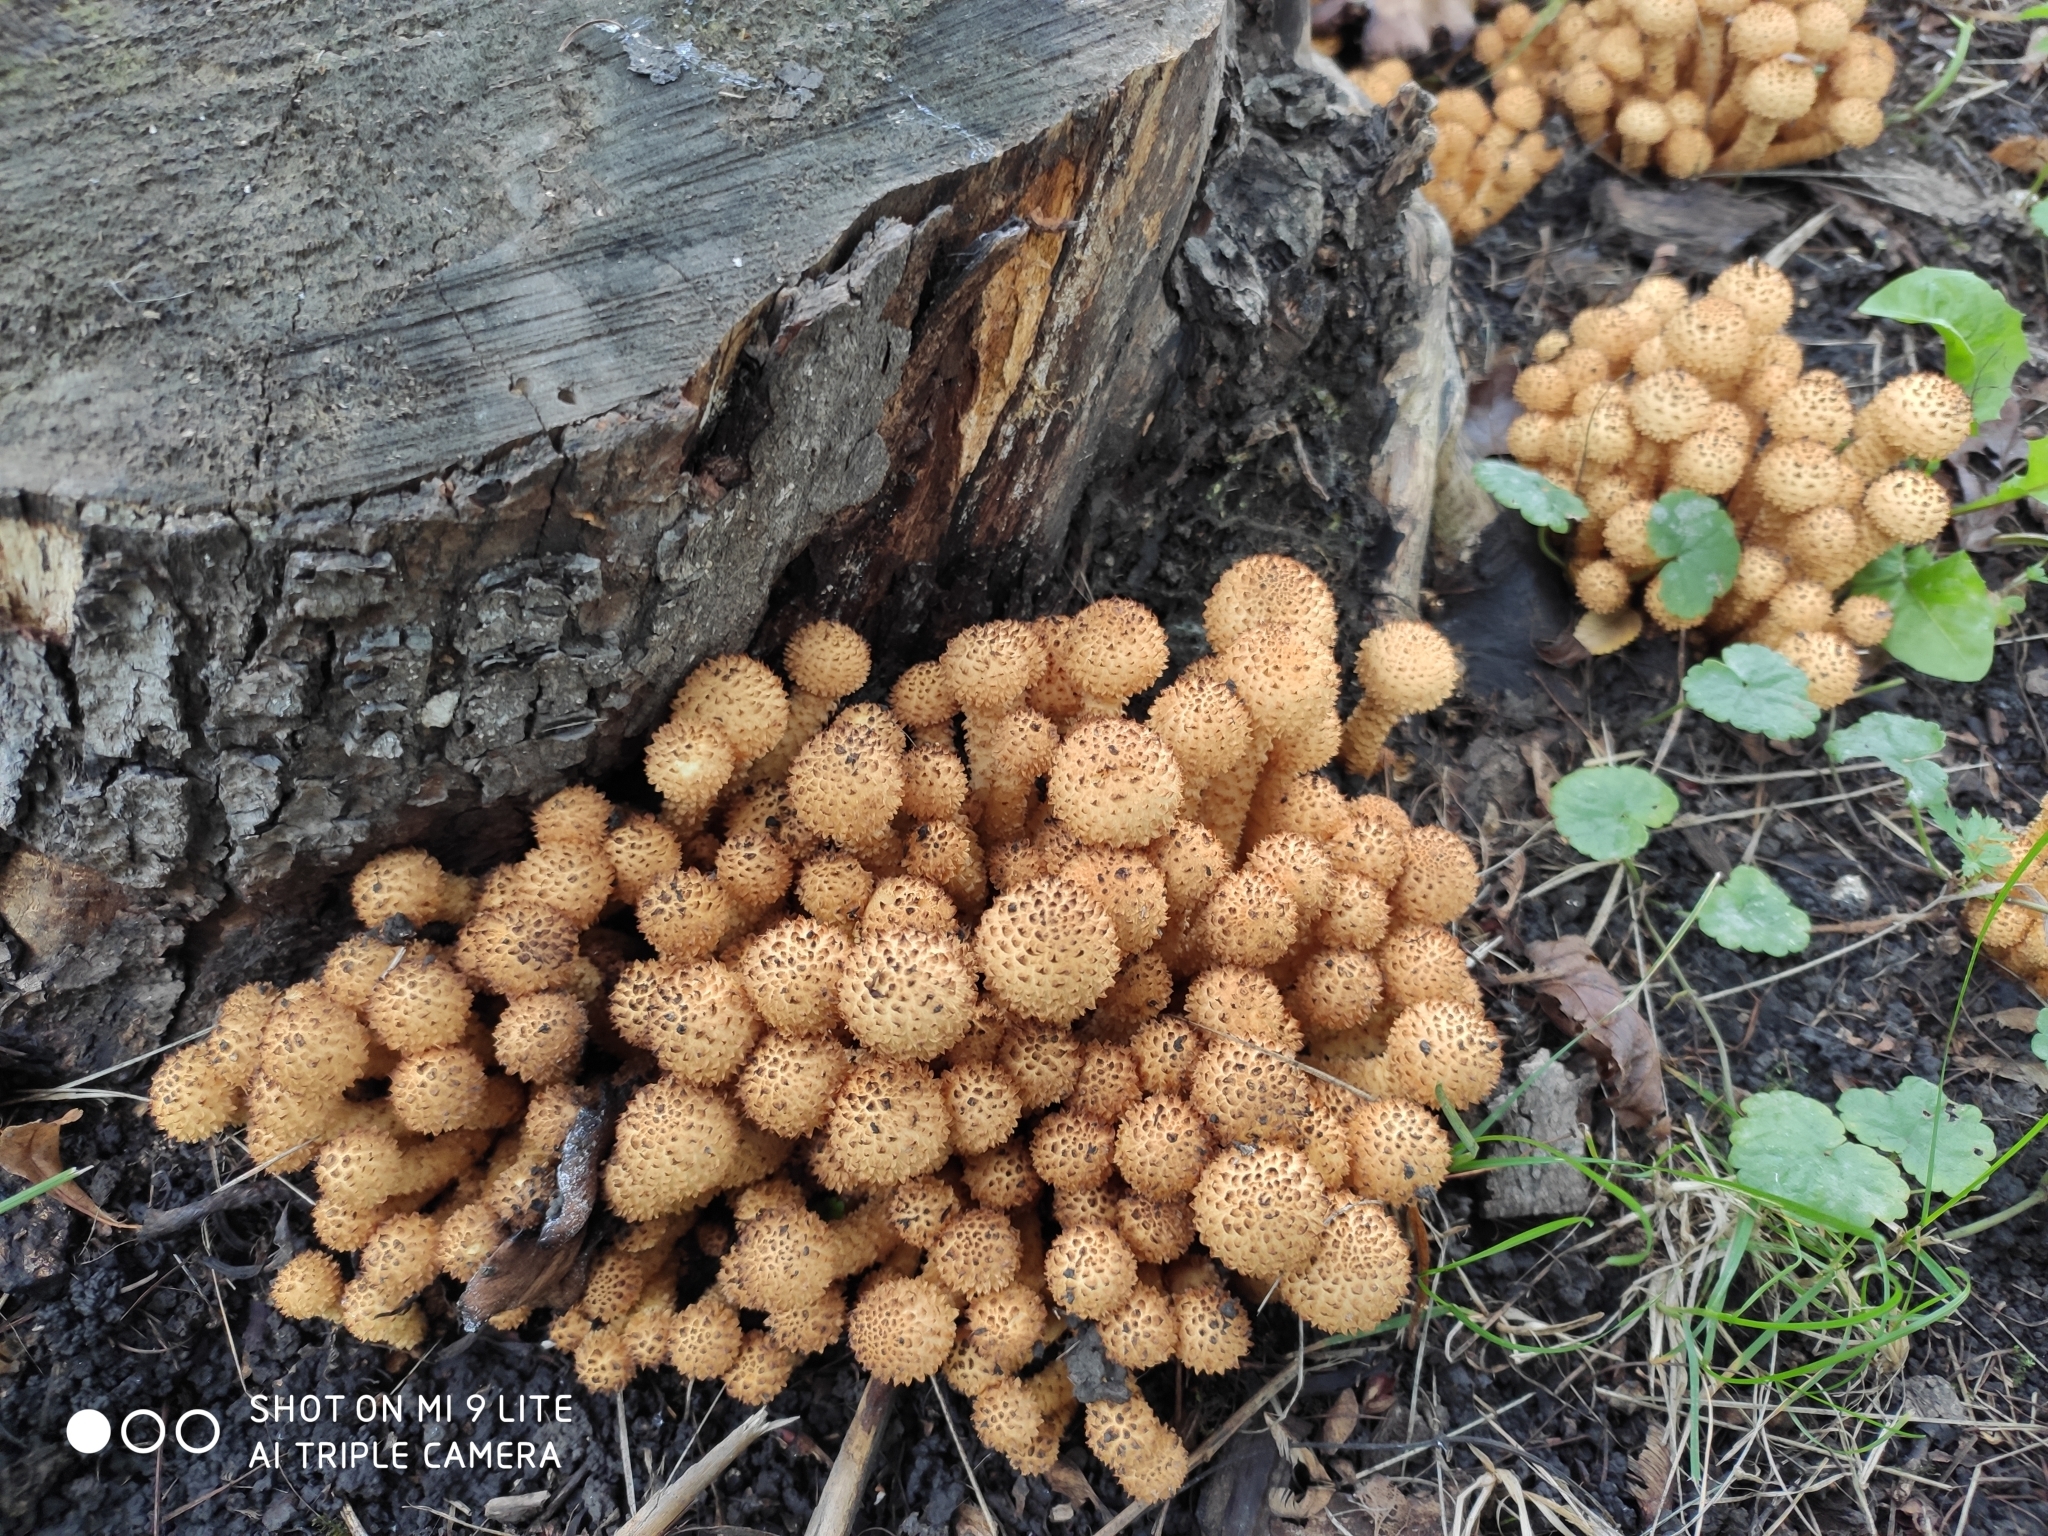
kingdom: Fungi
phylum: Basidiomycota
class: Agaricomycetes
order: Agaricales
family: Strophariaceae
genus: Pholiota
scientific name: Pholiota squarrosa
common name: Shaggy pholiota
